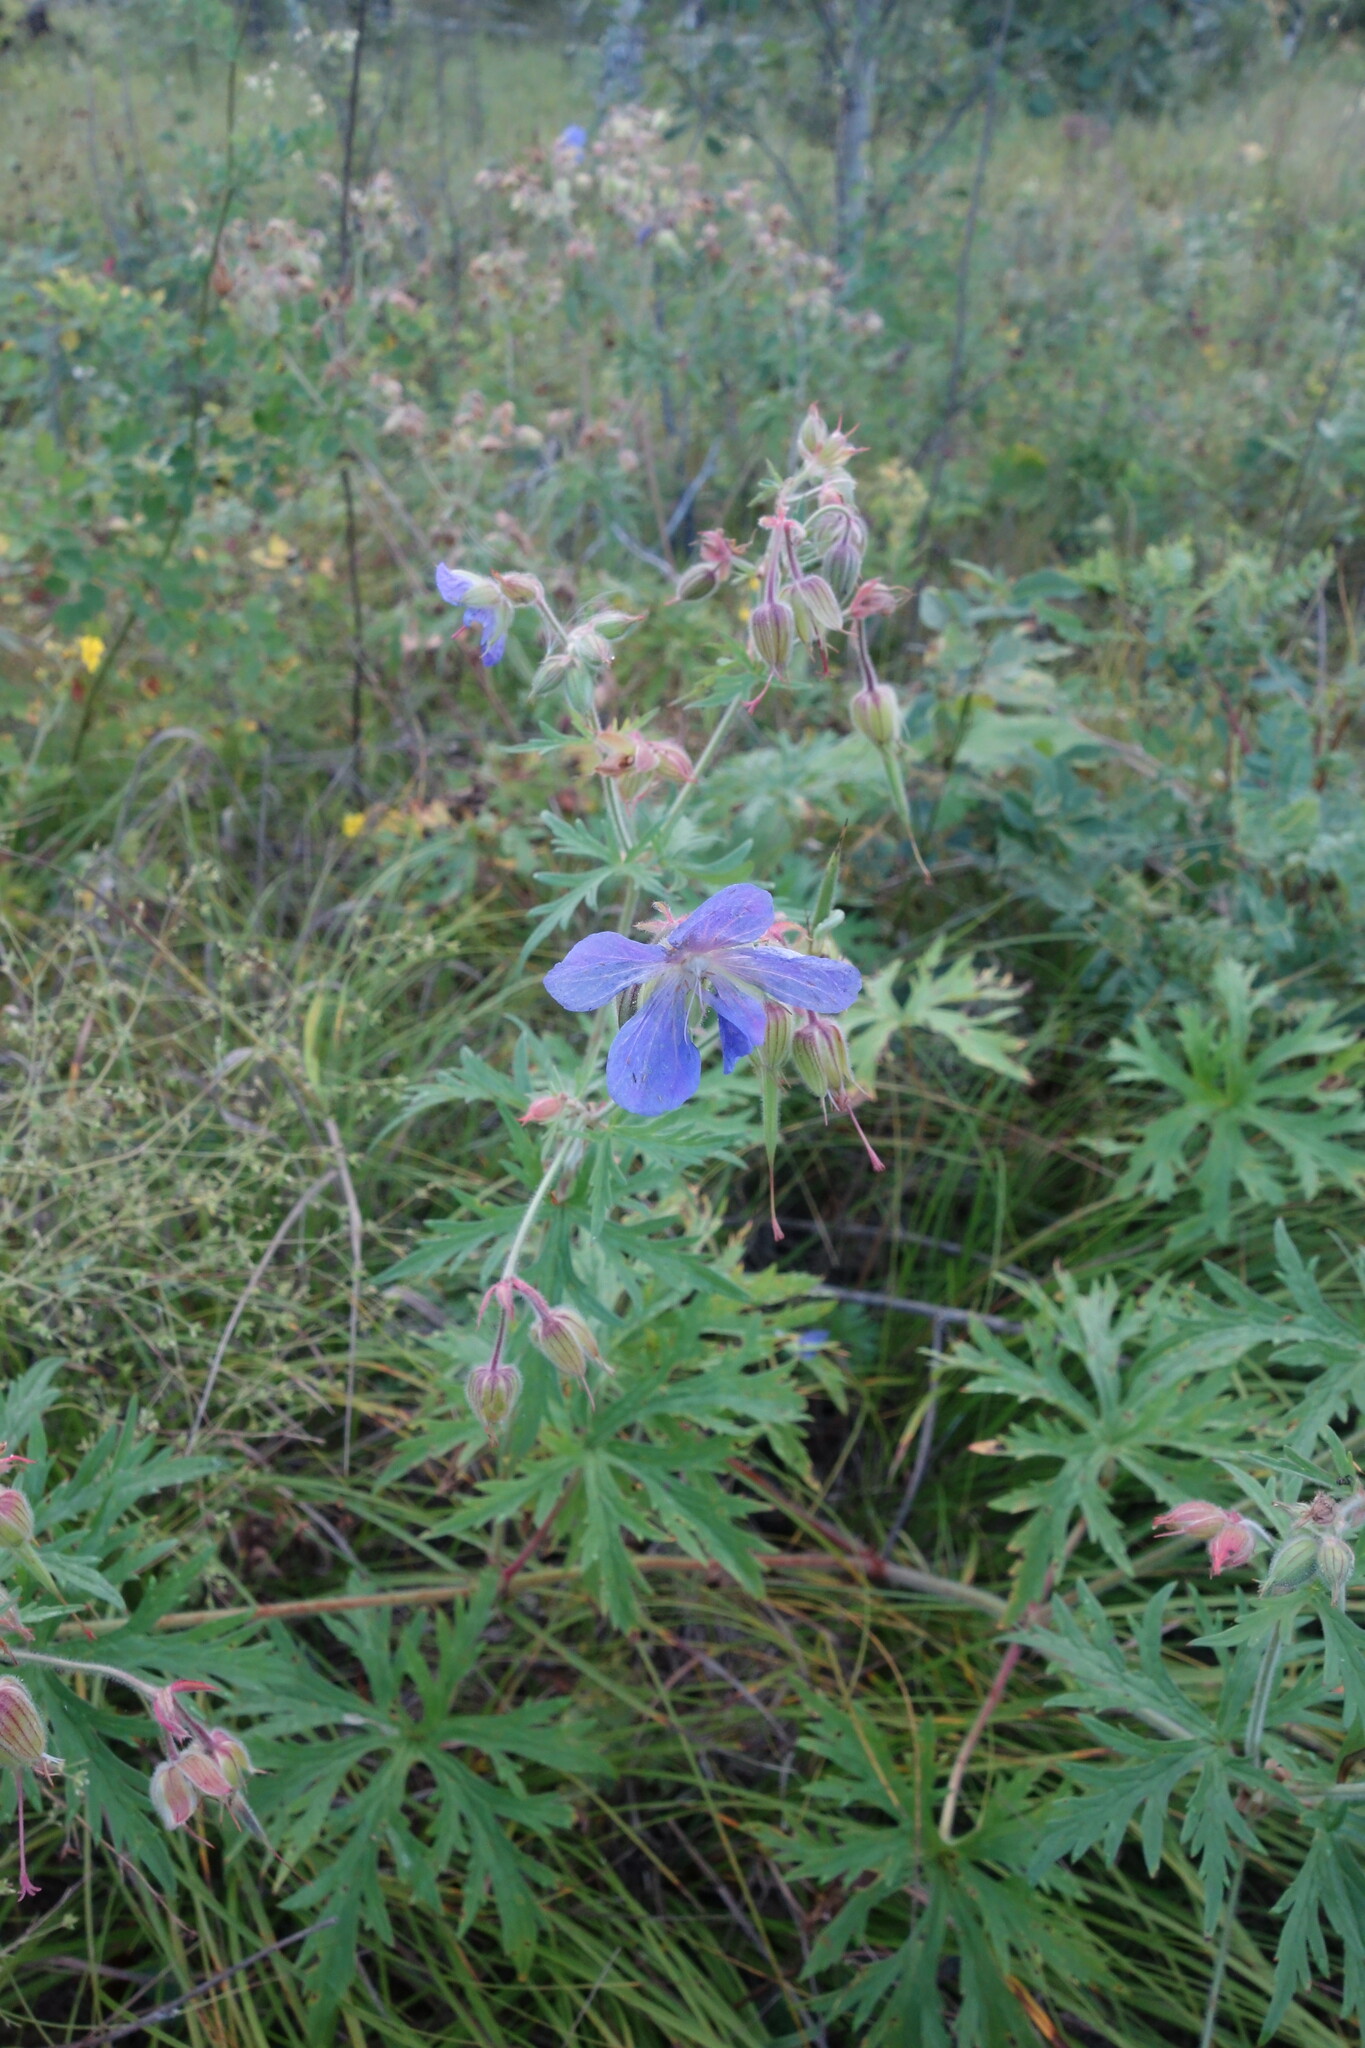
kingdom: Plantae
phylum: Tracheophyta
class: Magnoliopsida
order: Geraniales
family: Geraniaceae
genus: Geranium
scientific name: Geranium pratense
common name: Meadow crane's-bill
